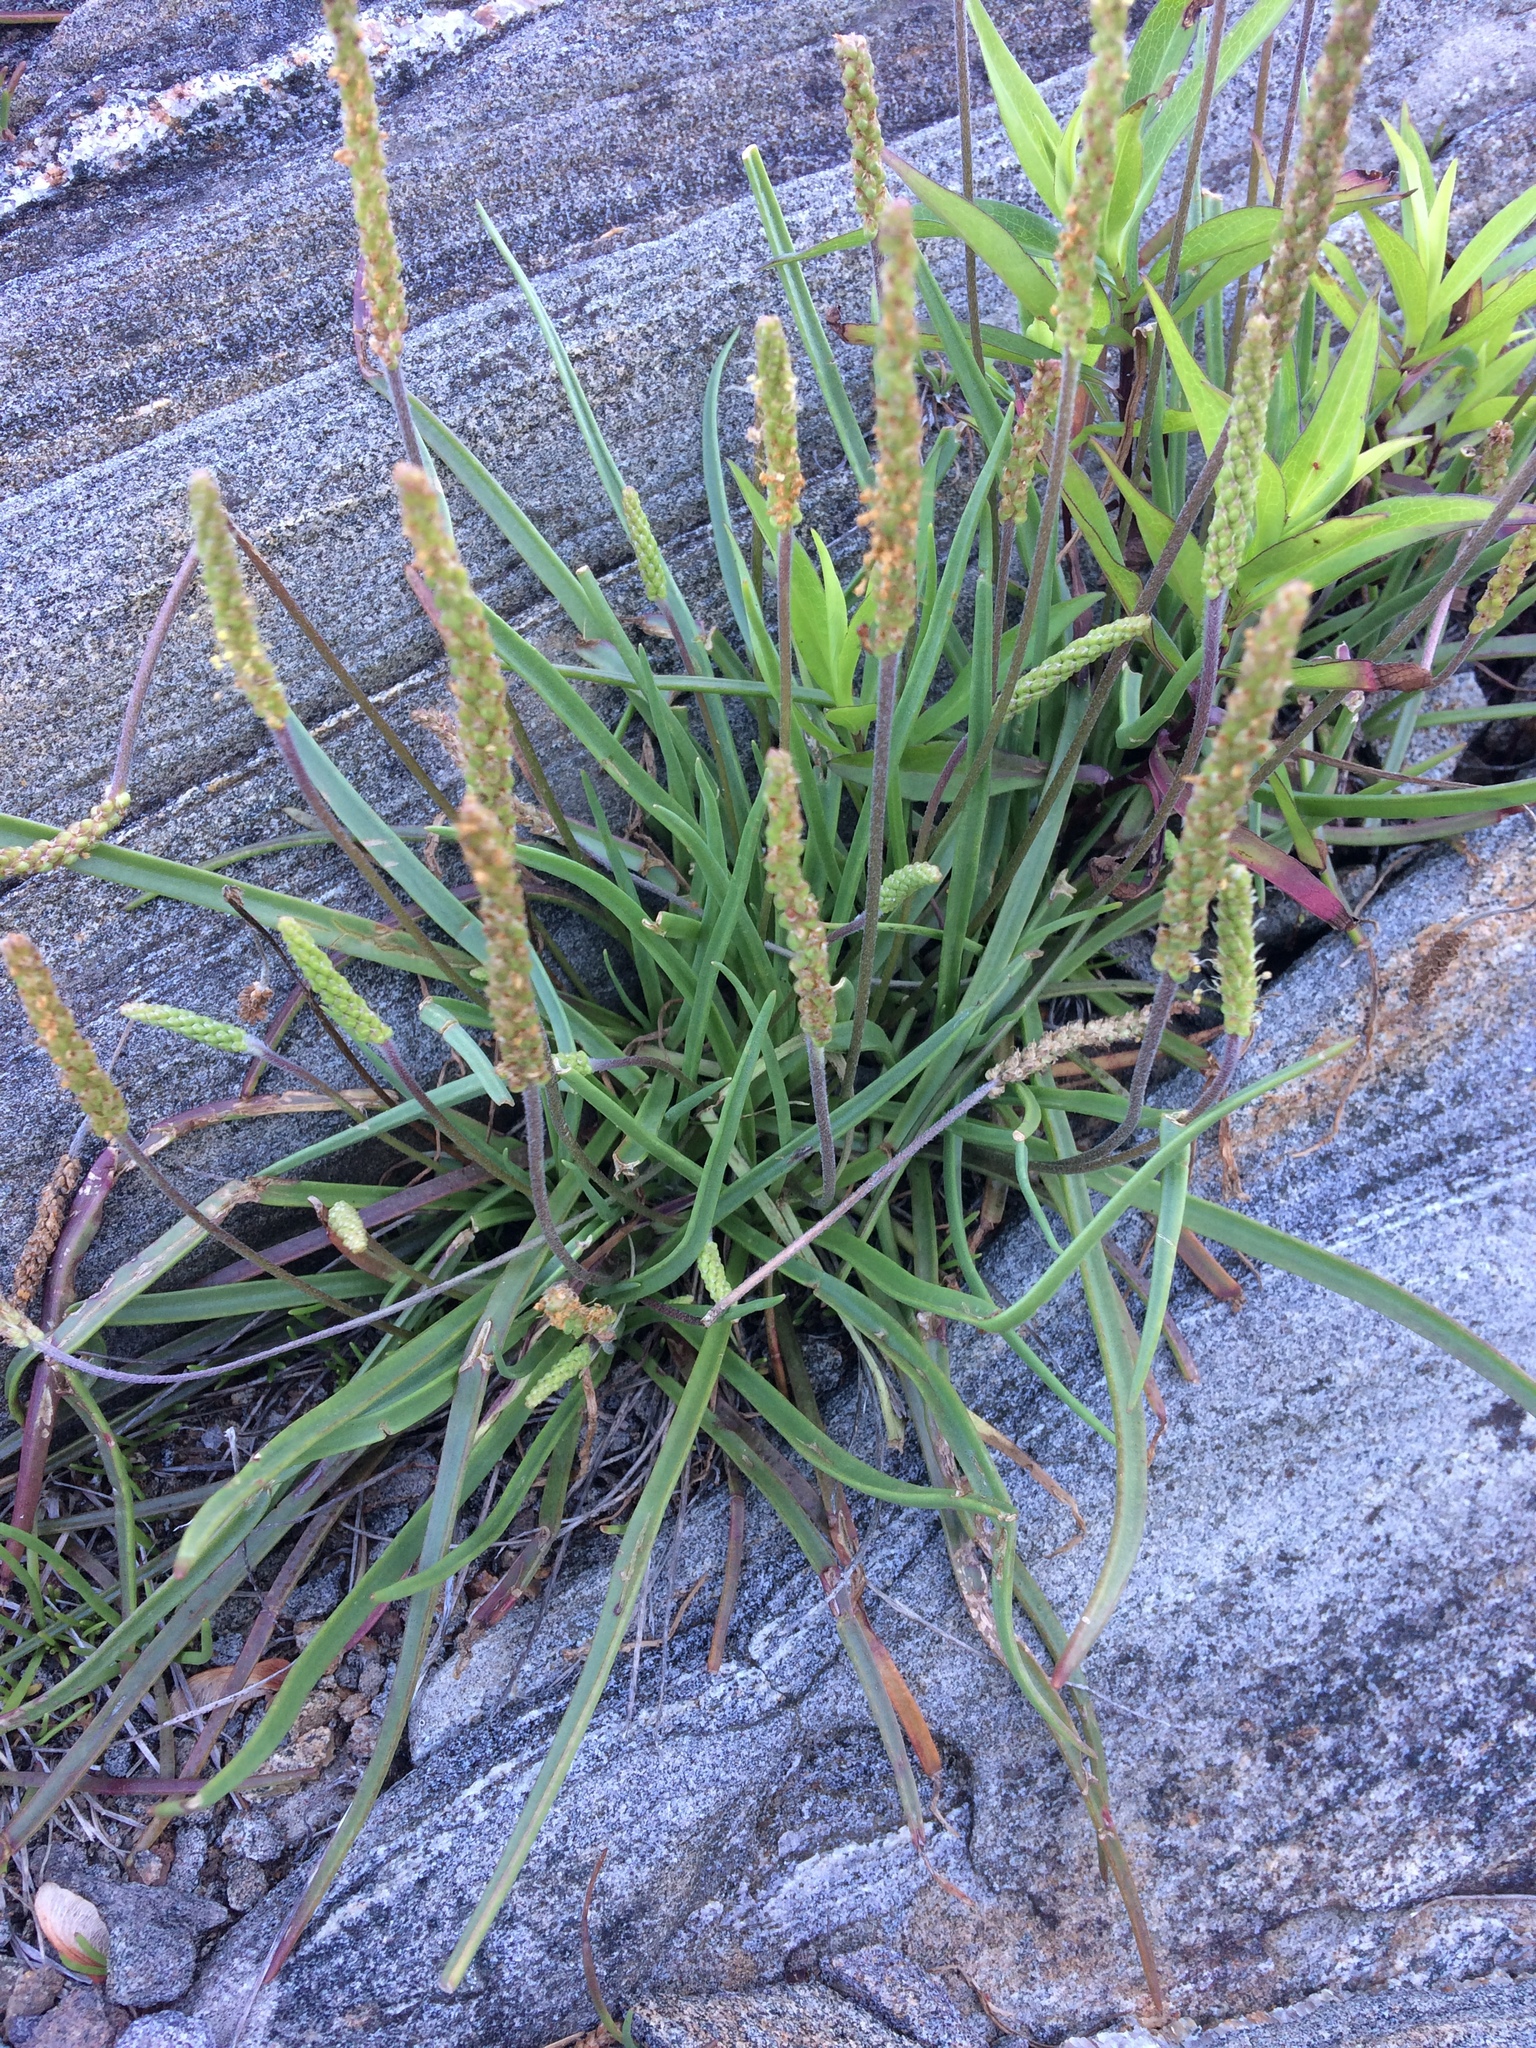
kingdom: Plantae
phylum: Tracheophyta
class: Magnoliopsida
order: Lamiales
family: Plantaginaceae
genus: Plantago
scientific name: Plantago maritima
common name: Sea plantain
